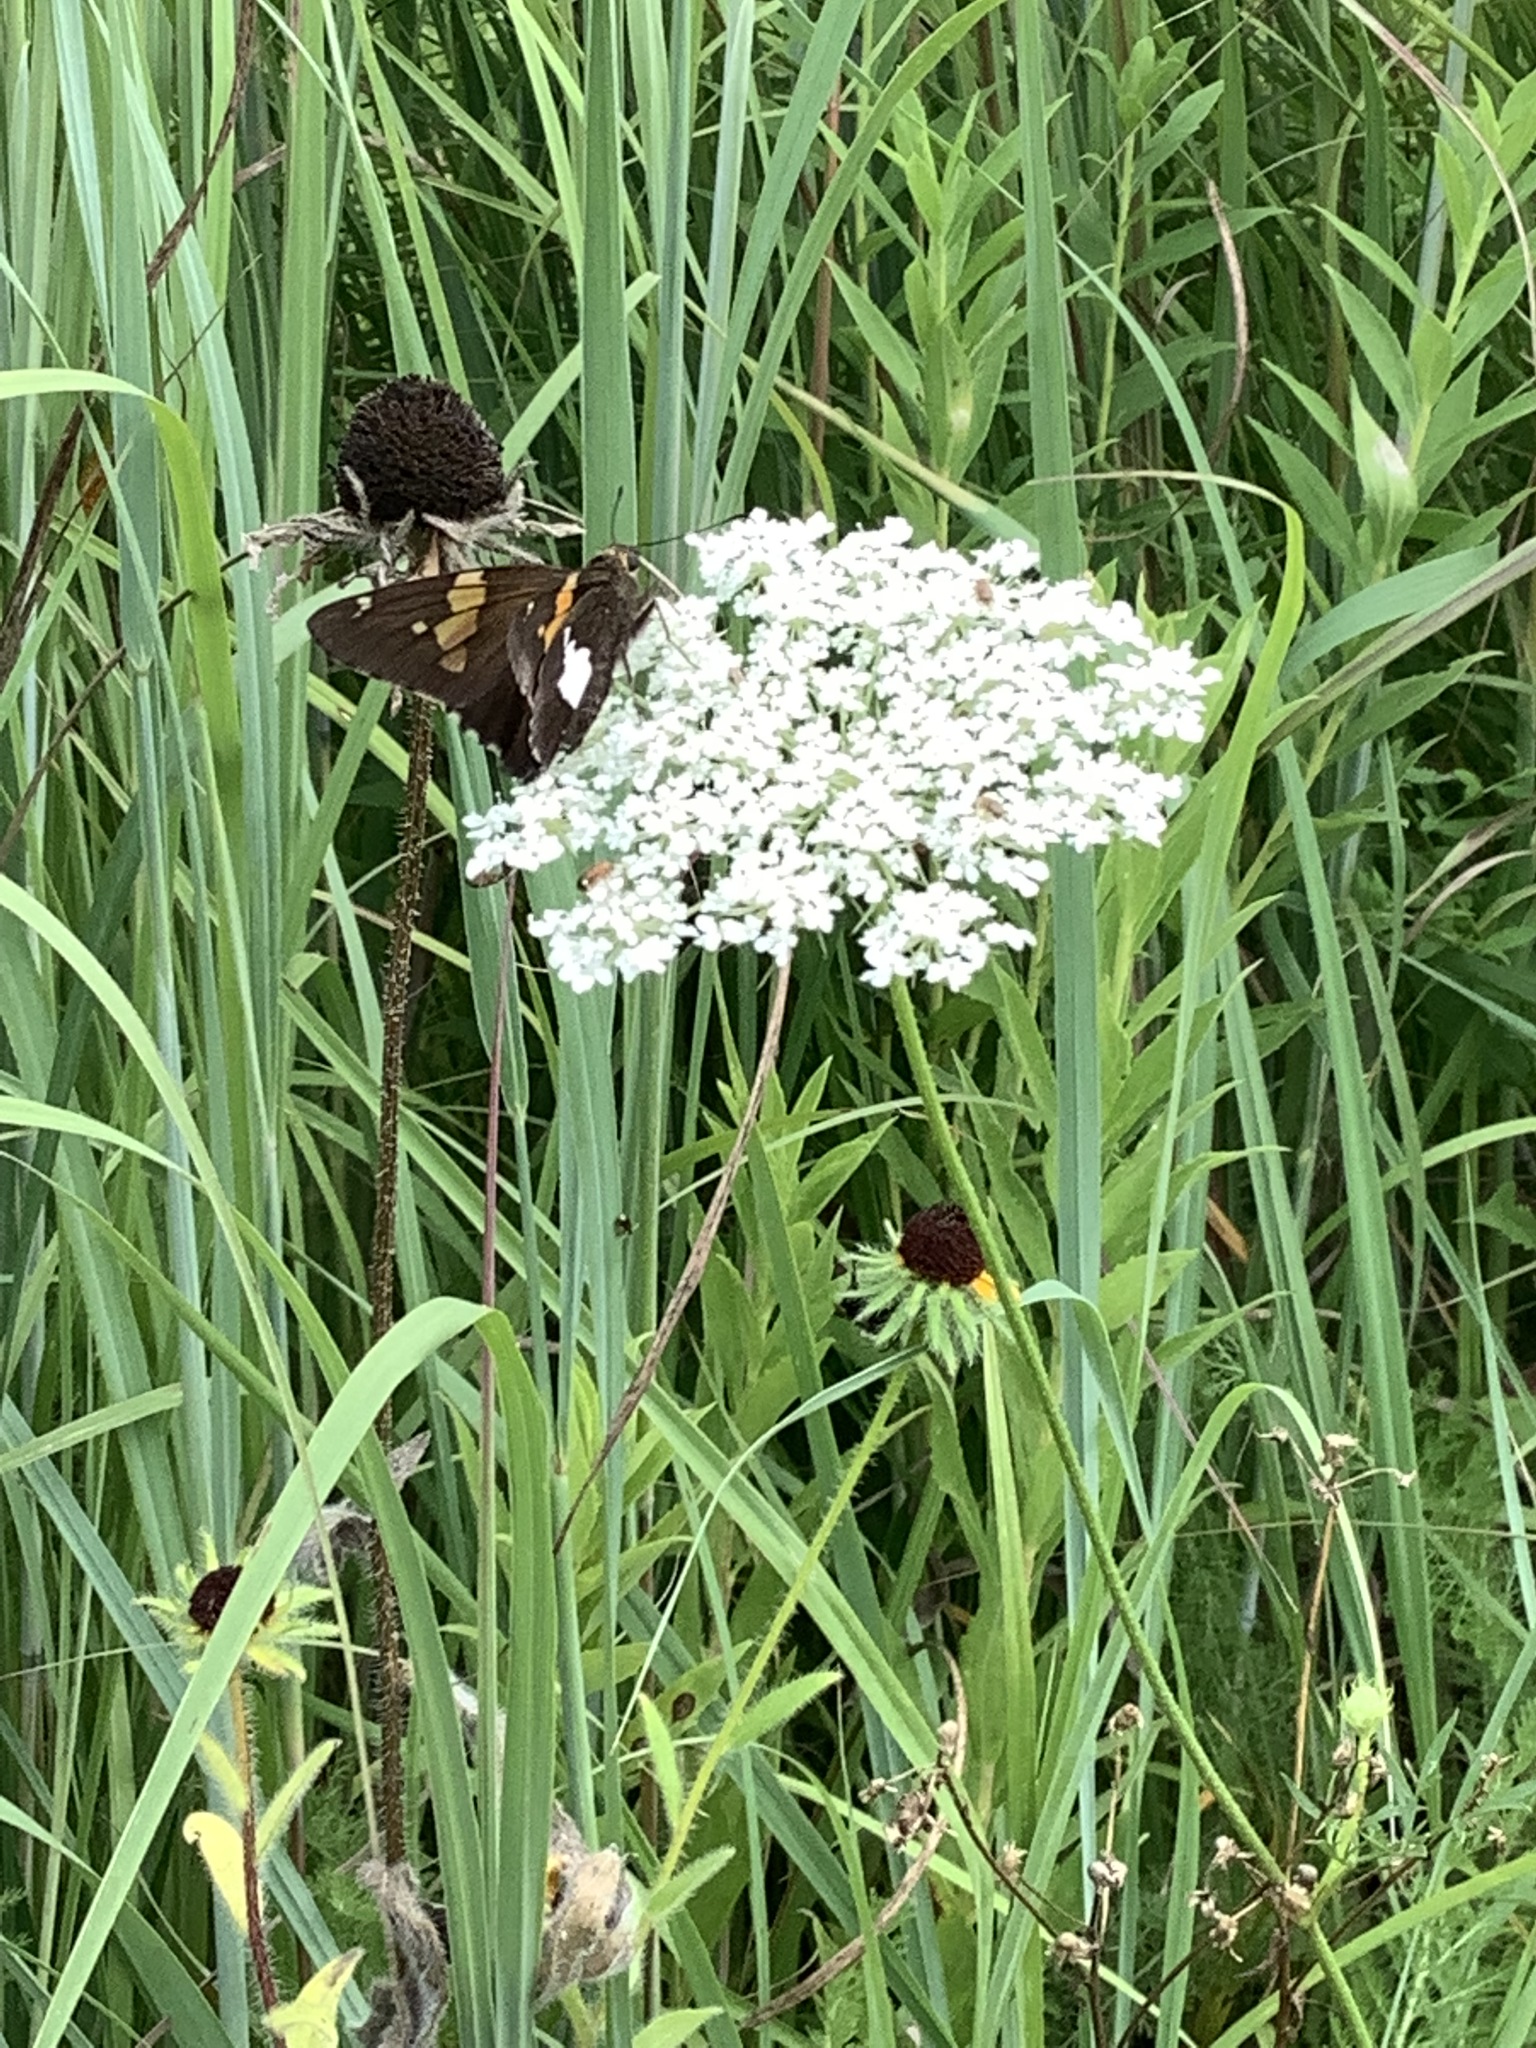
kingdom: Plantae
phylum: Tracheophyta
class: Magnoliopsida
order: Apiales
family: Apiaceae
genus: Daucus
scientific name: Daucus carota
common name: Wild carrot
